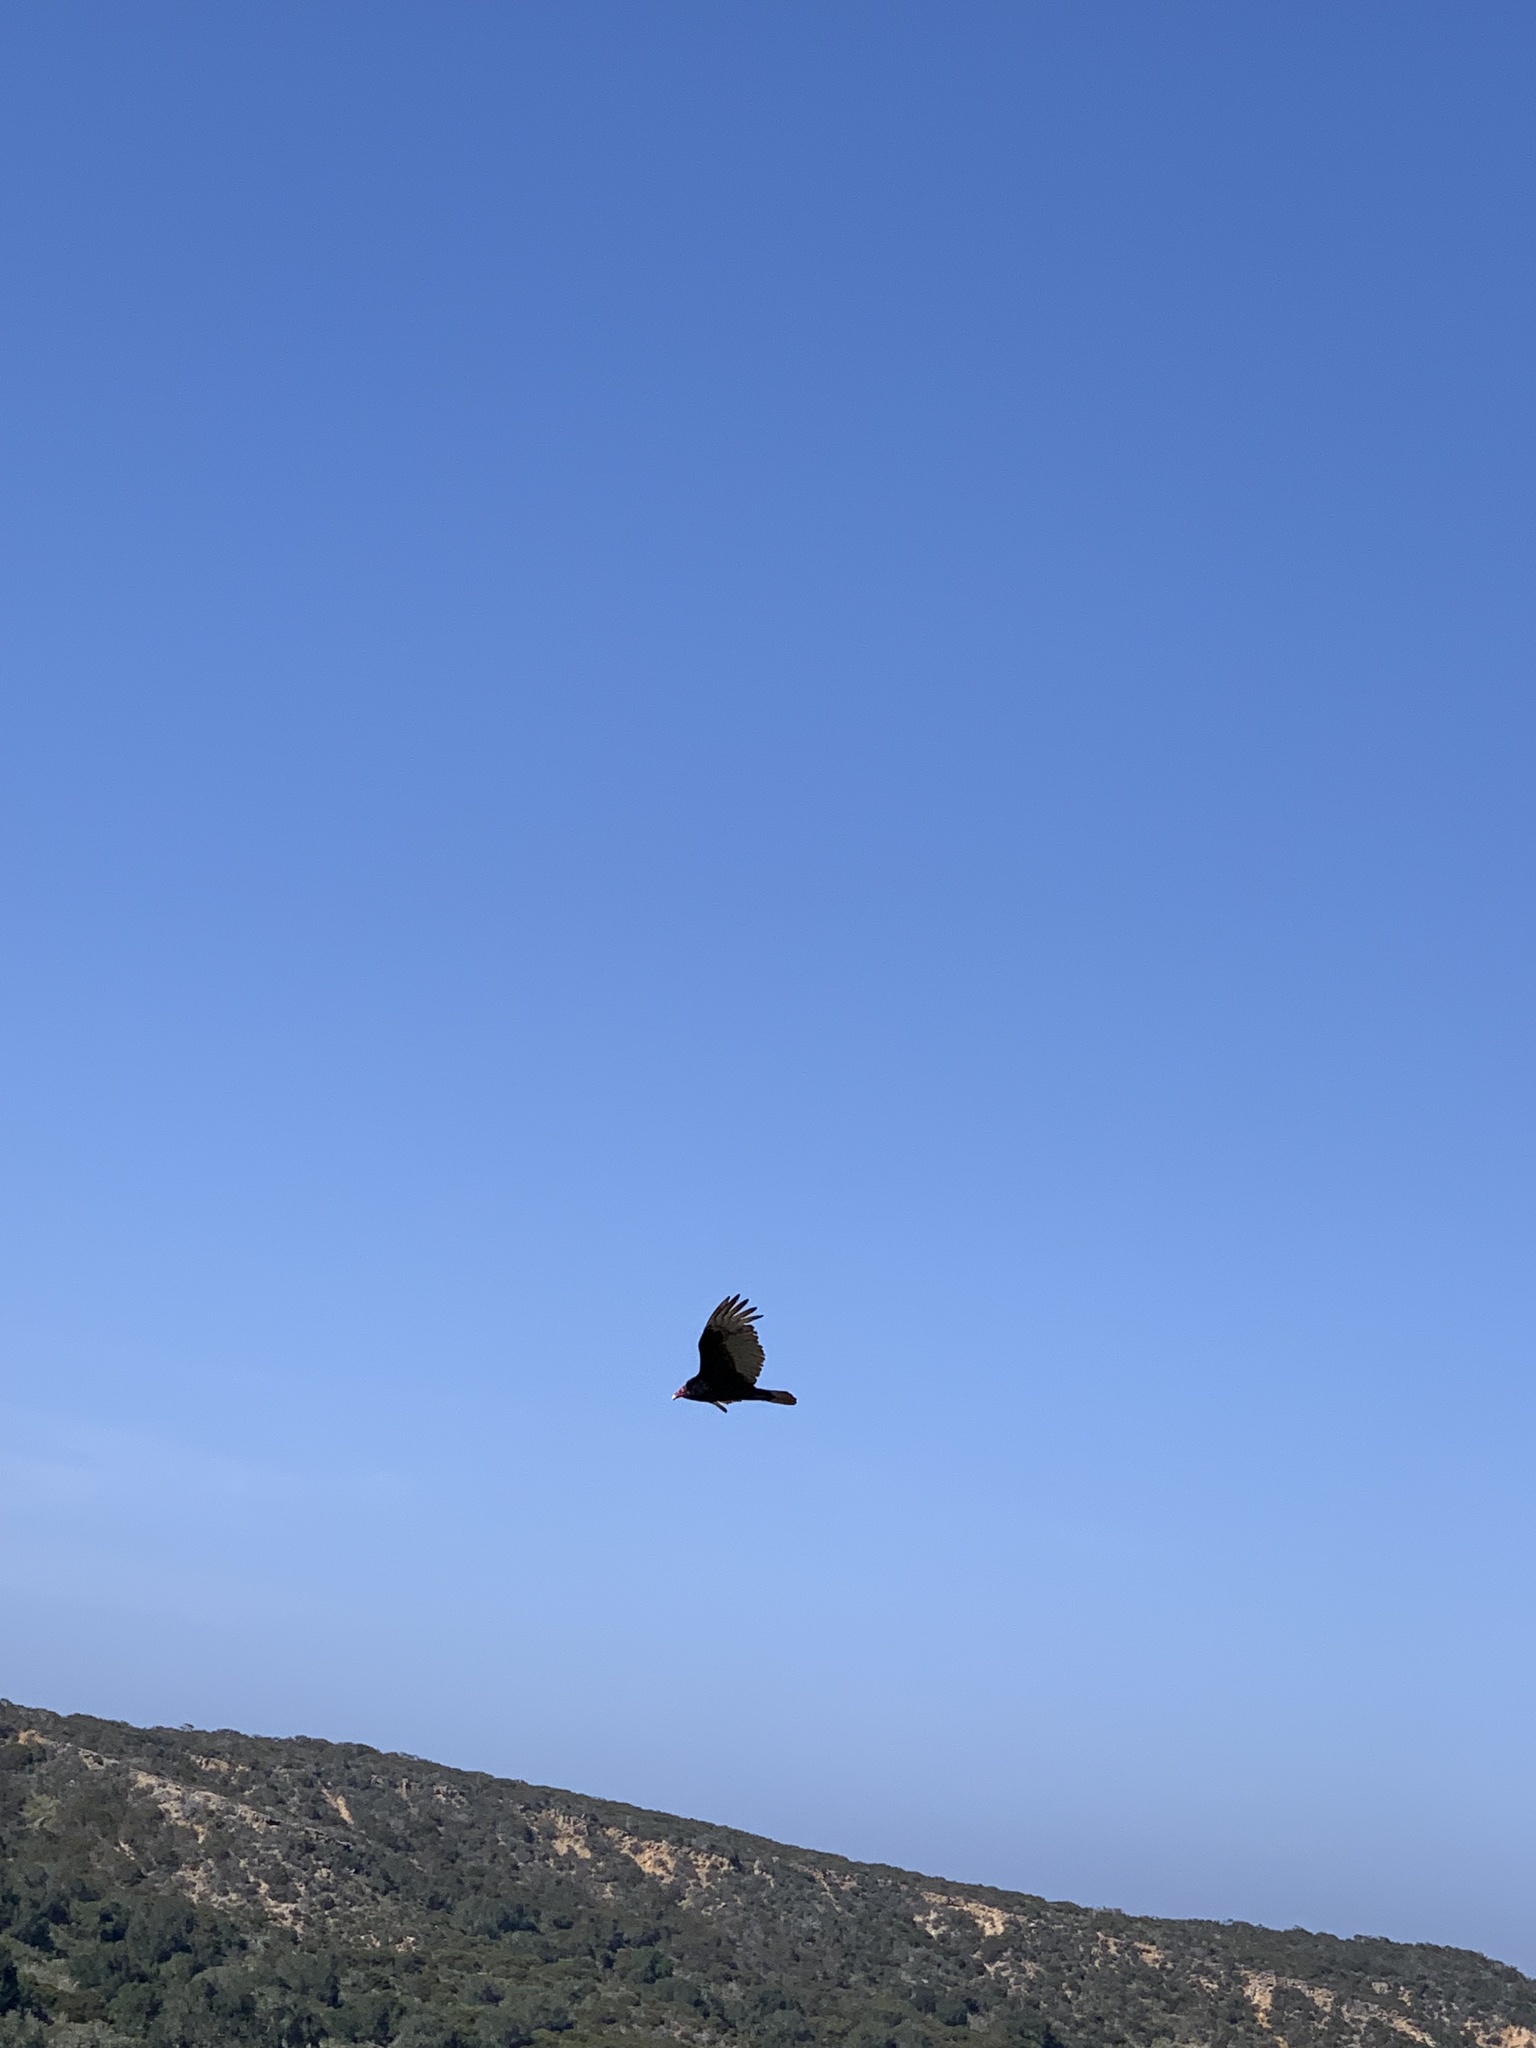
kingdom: Animalia
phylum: Chordata
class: Aves
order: Accipitriformes
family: Cathartidae
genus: Cathartes
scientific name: Cathartes aura
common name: Turkey vulture
